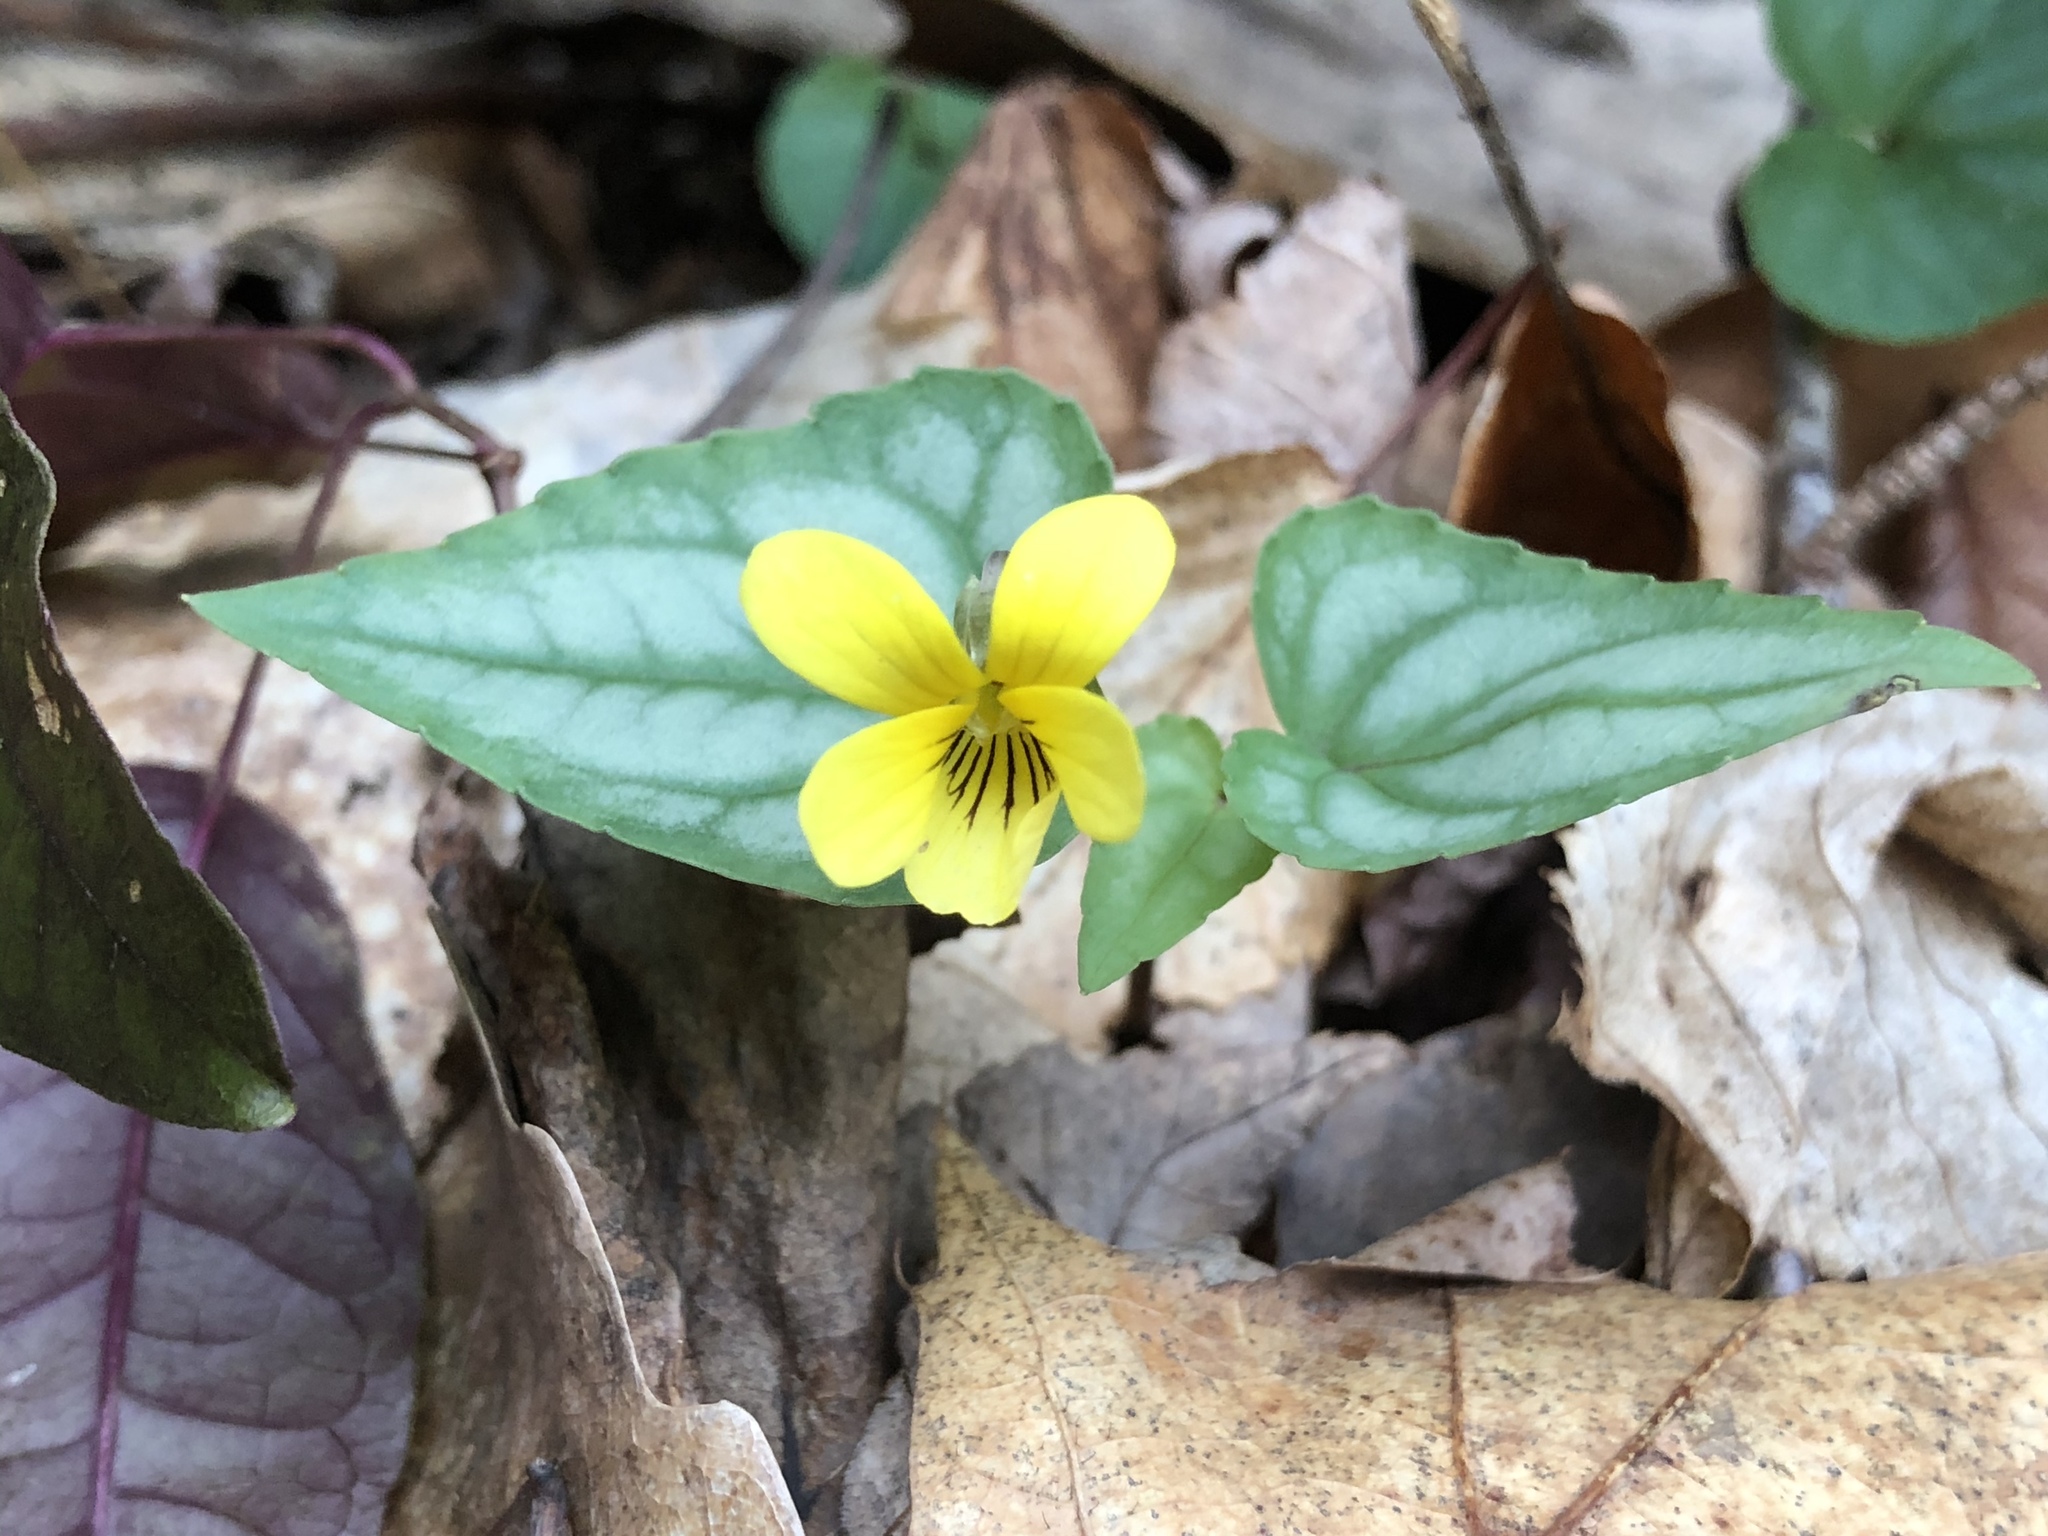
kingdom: Plantae
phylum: Tracheophyta
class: Magnoliopsida
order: Malpighiales
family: Violaceae
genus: Viola
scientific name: Viola hastata
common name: Spear-leaf violet
